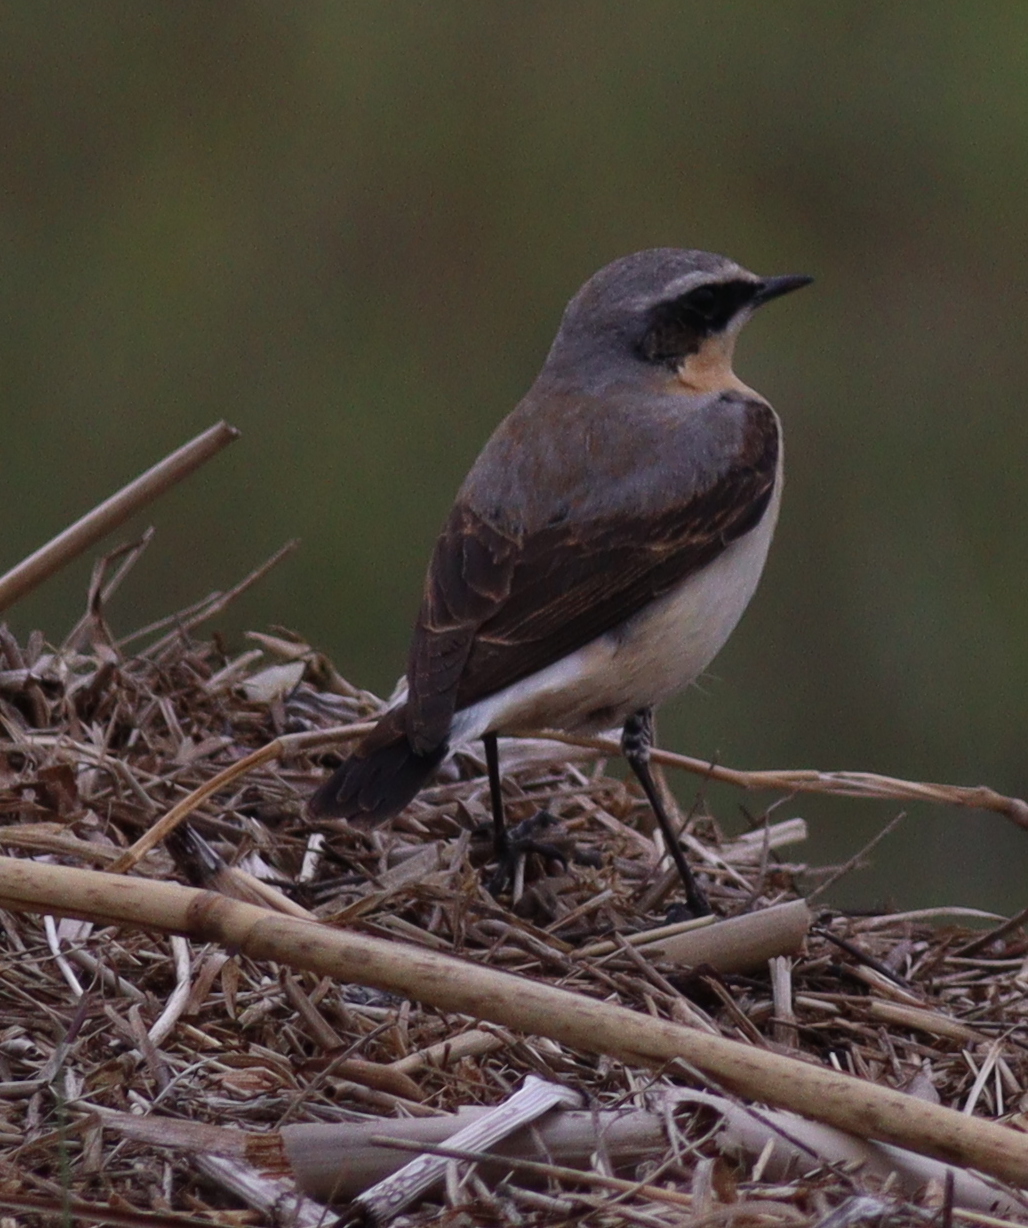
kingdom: Animalia
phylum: Chordata
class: Aves
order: Passeriformes
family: Muscicapidae
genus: Oenanthe
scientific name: Oenanthe oenanthe
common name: Northern wheatear
